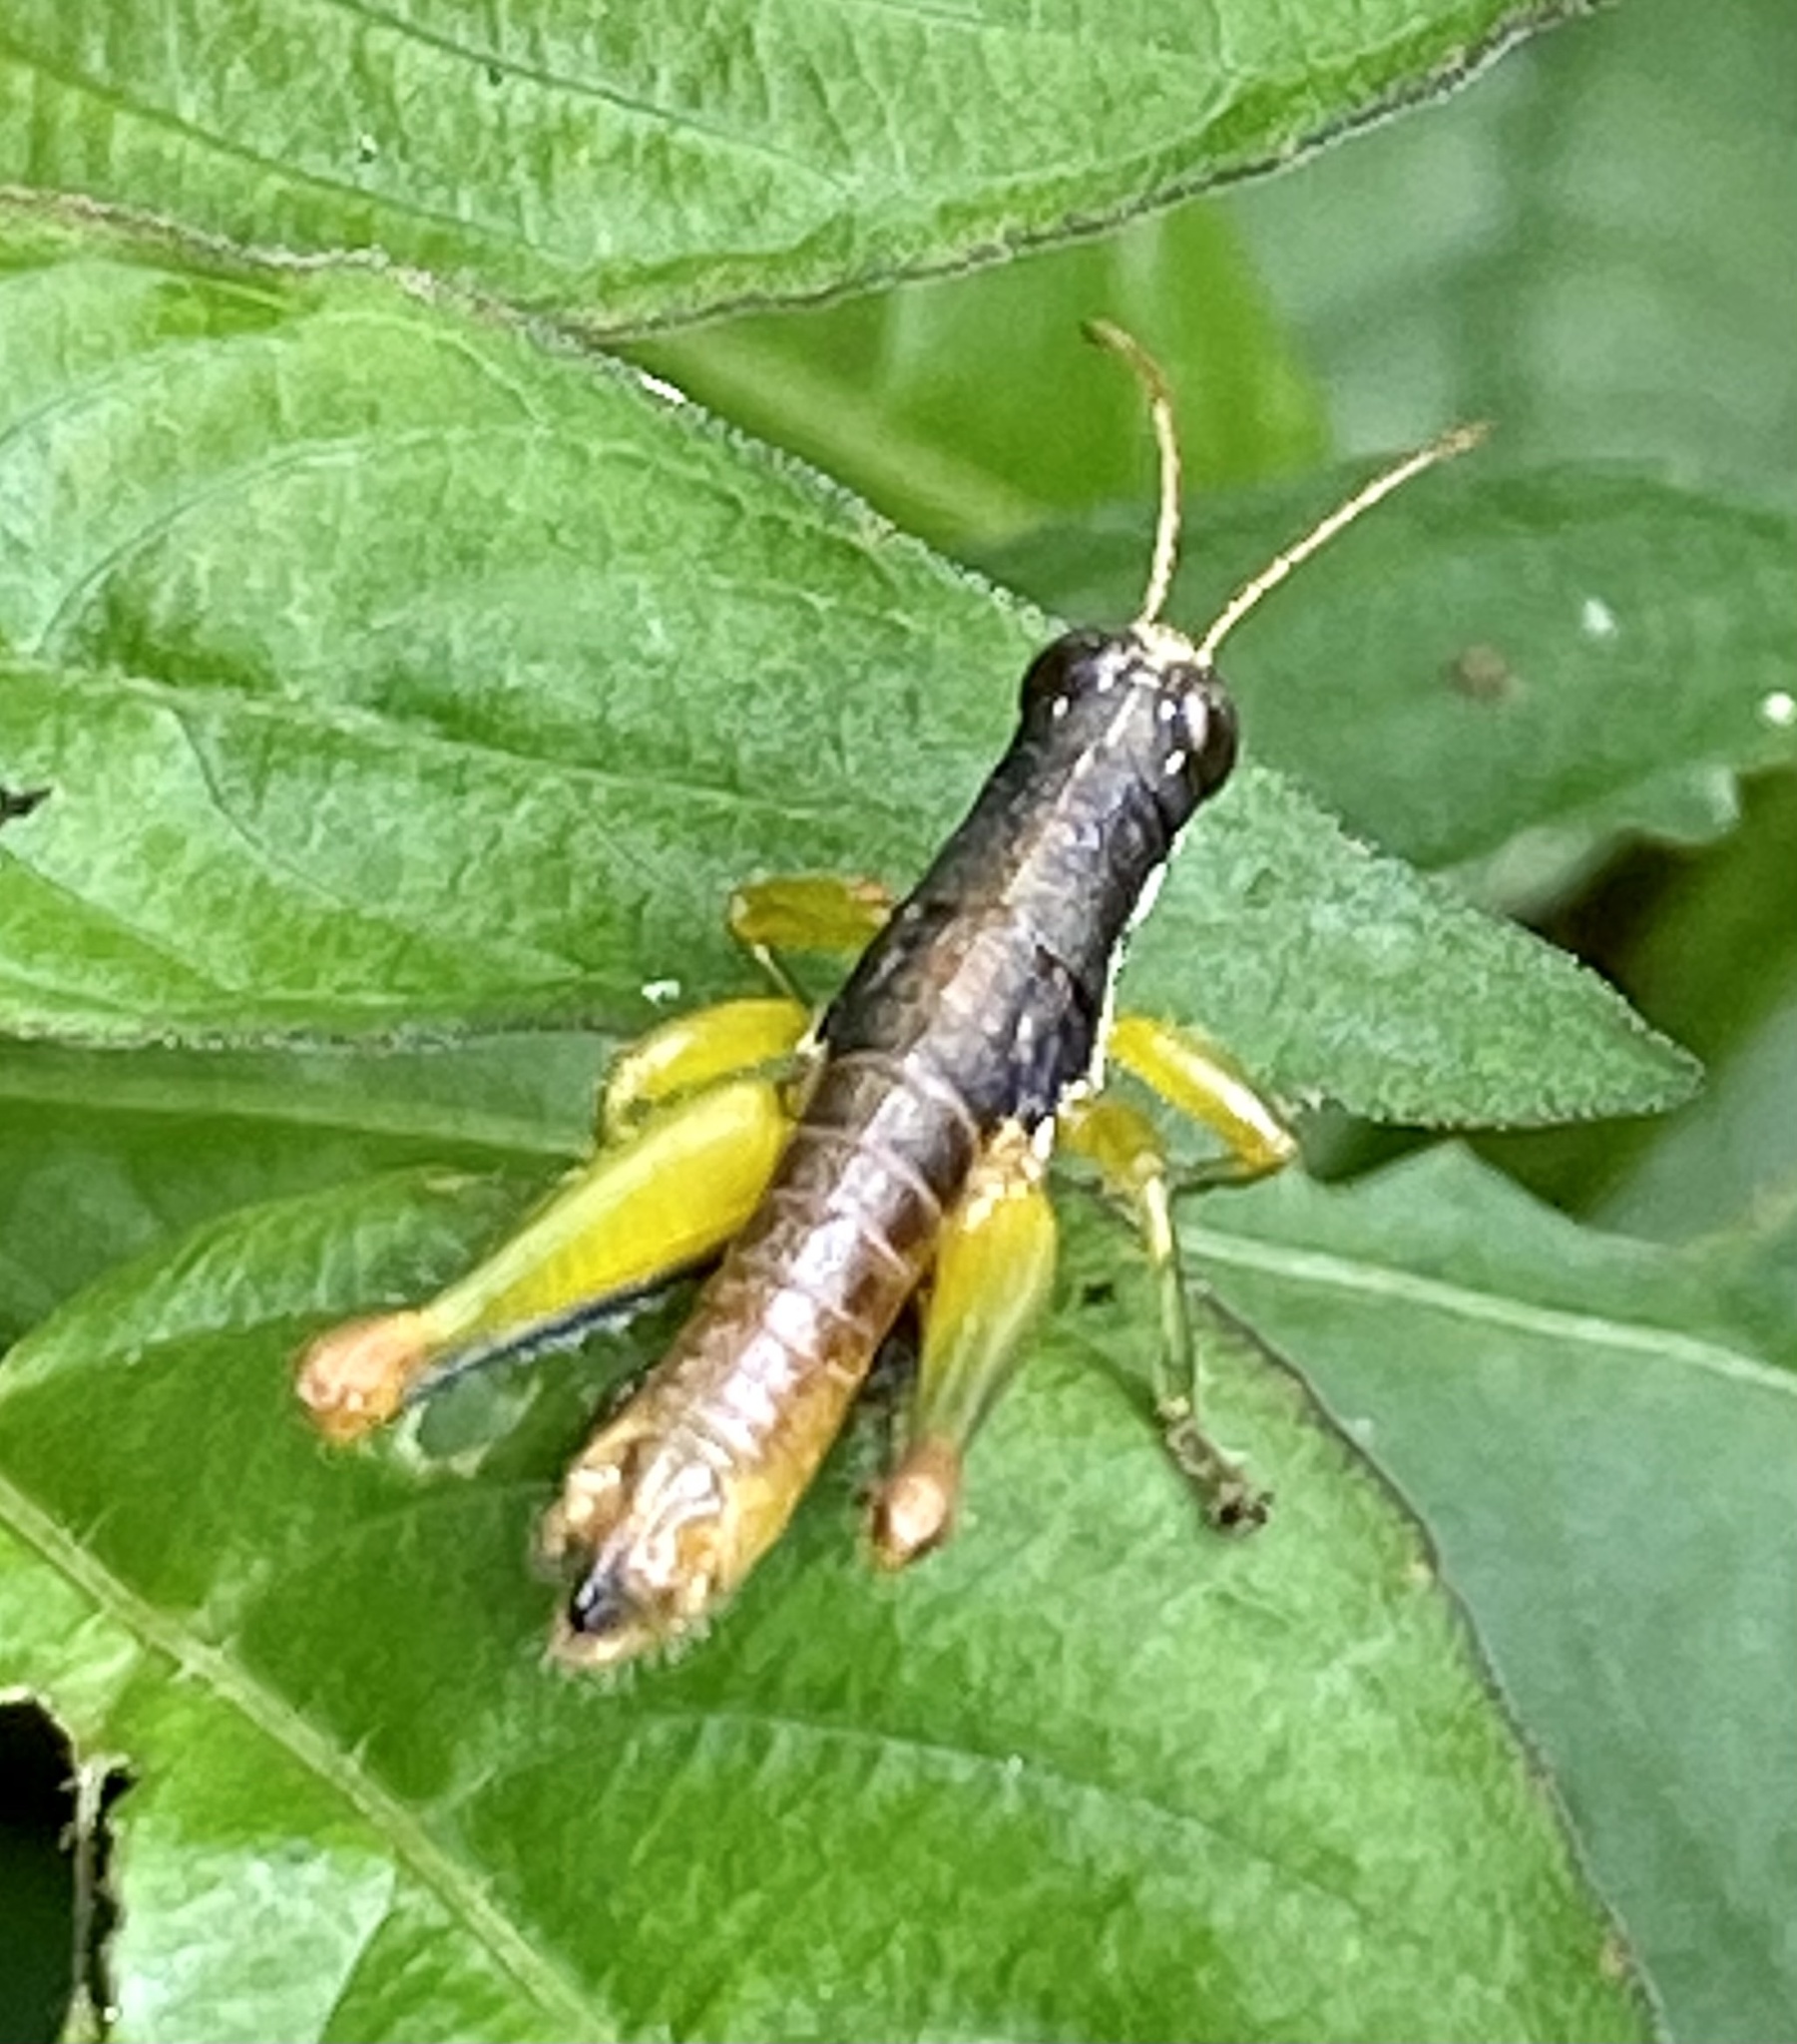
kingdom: Animalia
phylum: Arthropoda
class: Insecta
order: Orthoptera
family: Acrididae
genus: Sitalces
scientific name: Sitalces volxemi
